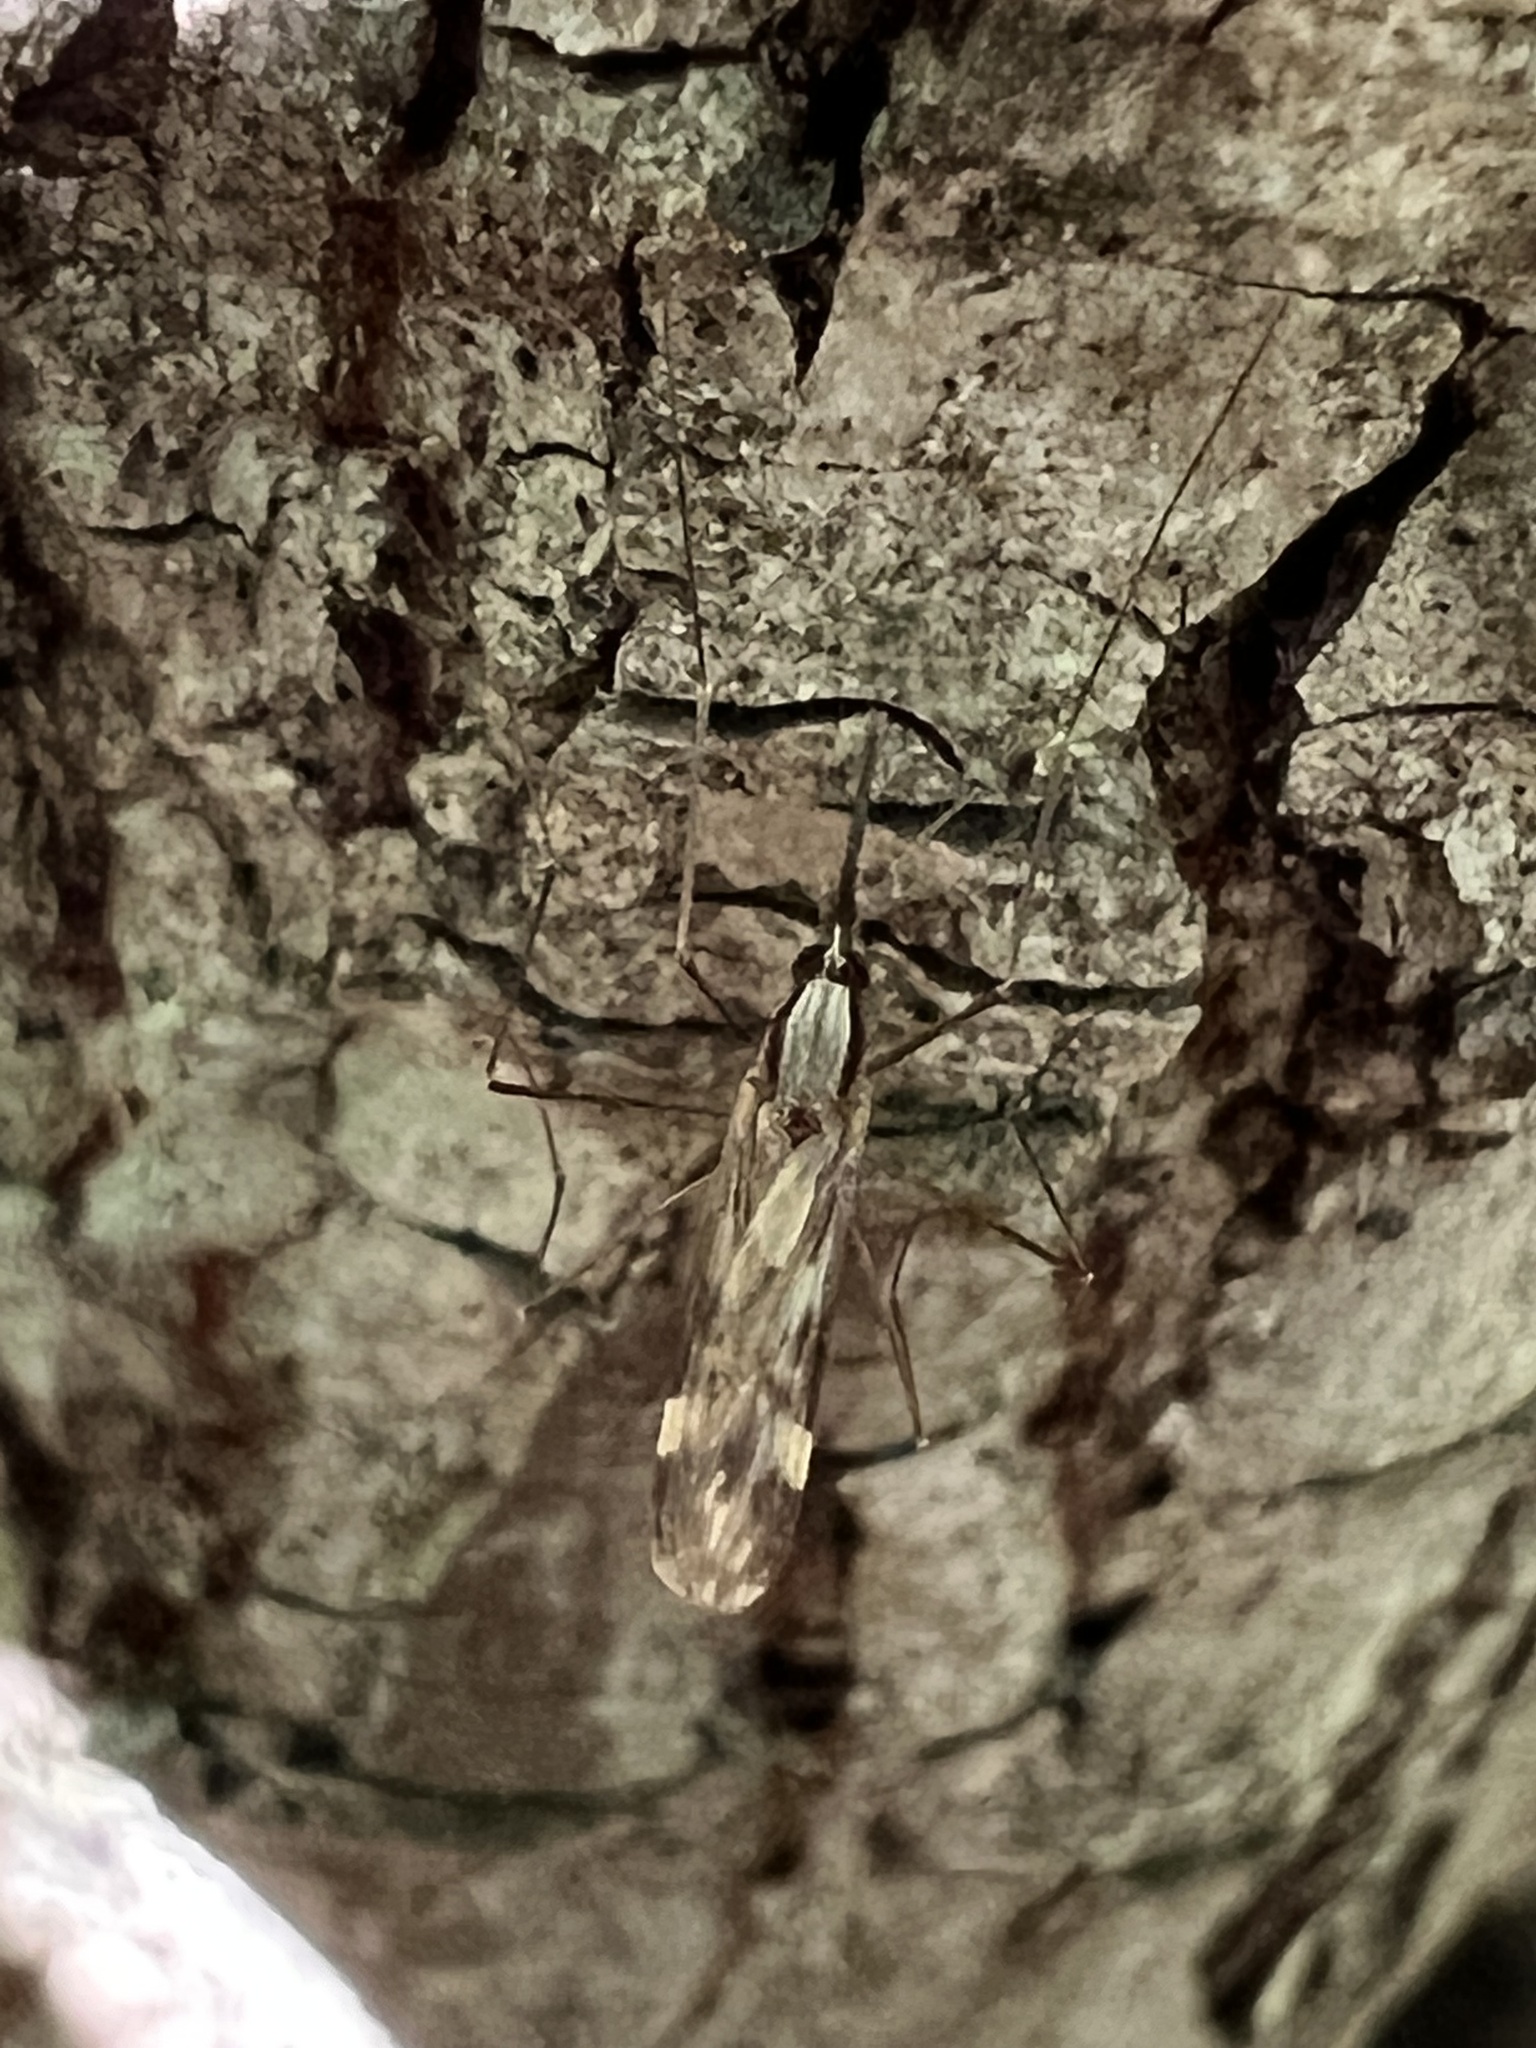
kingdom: Animalia
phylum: Arthropoda
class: Insecta
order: Diptera
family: Culicidae
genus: Anopheles
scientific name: Anopheles punctipennis
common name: Woodland malaria mosquito
